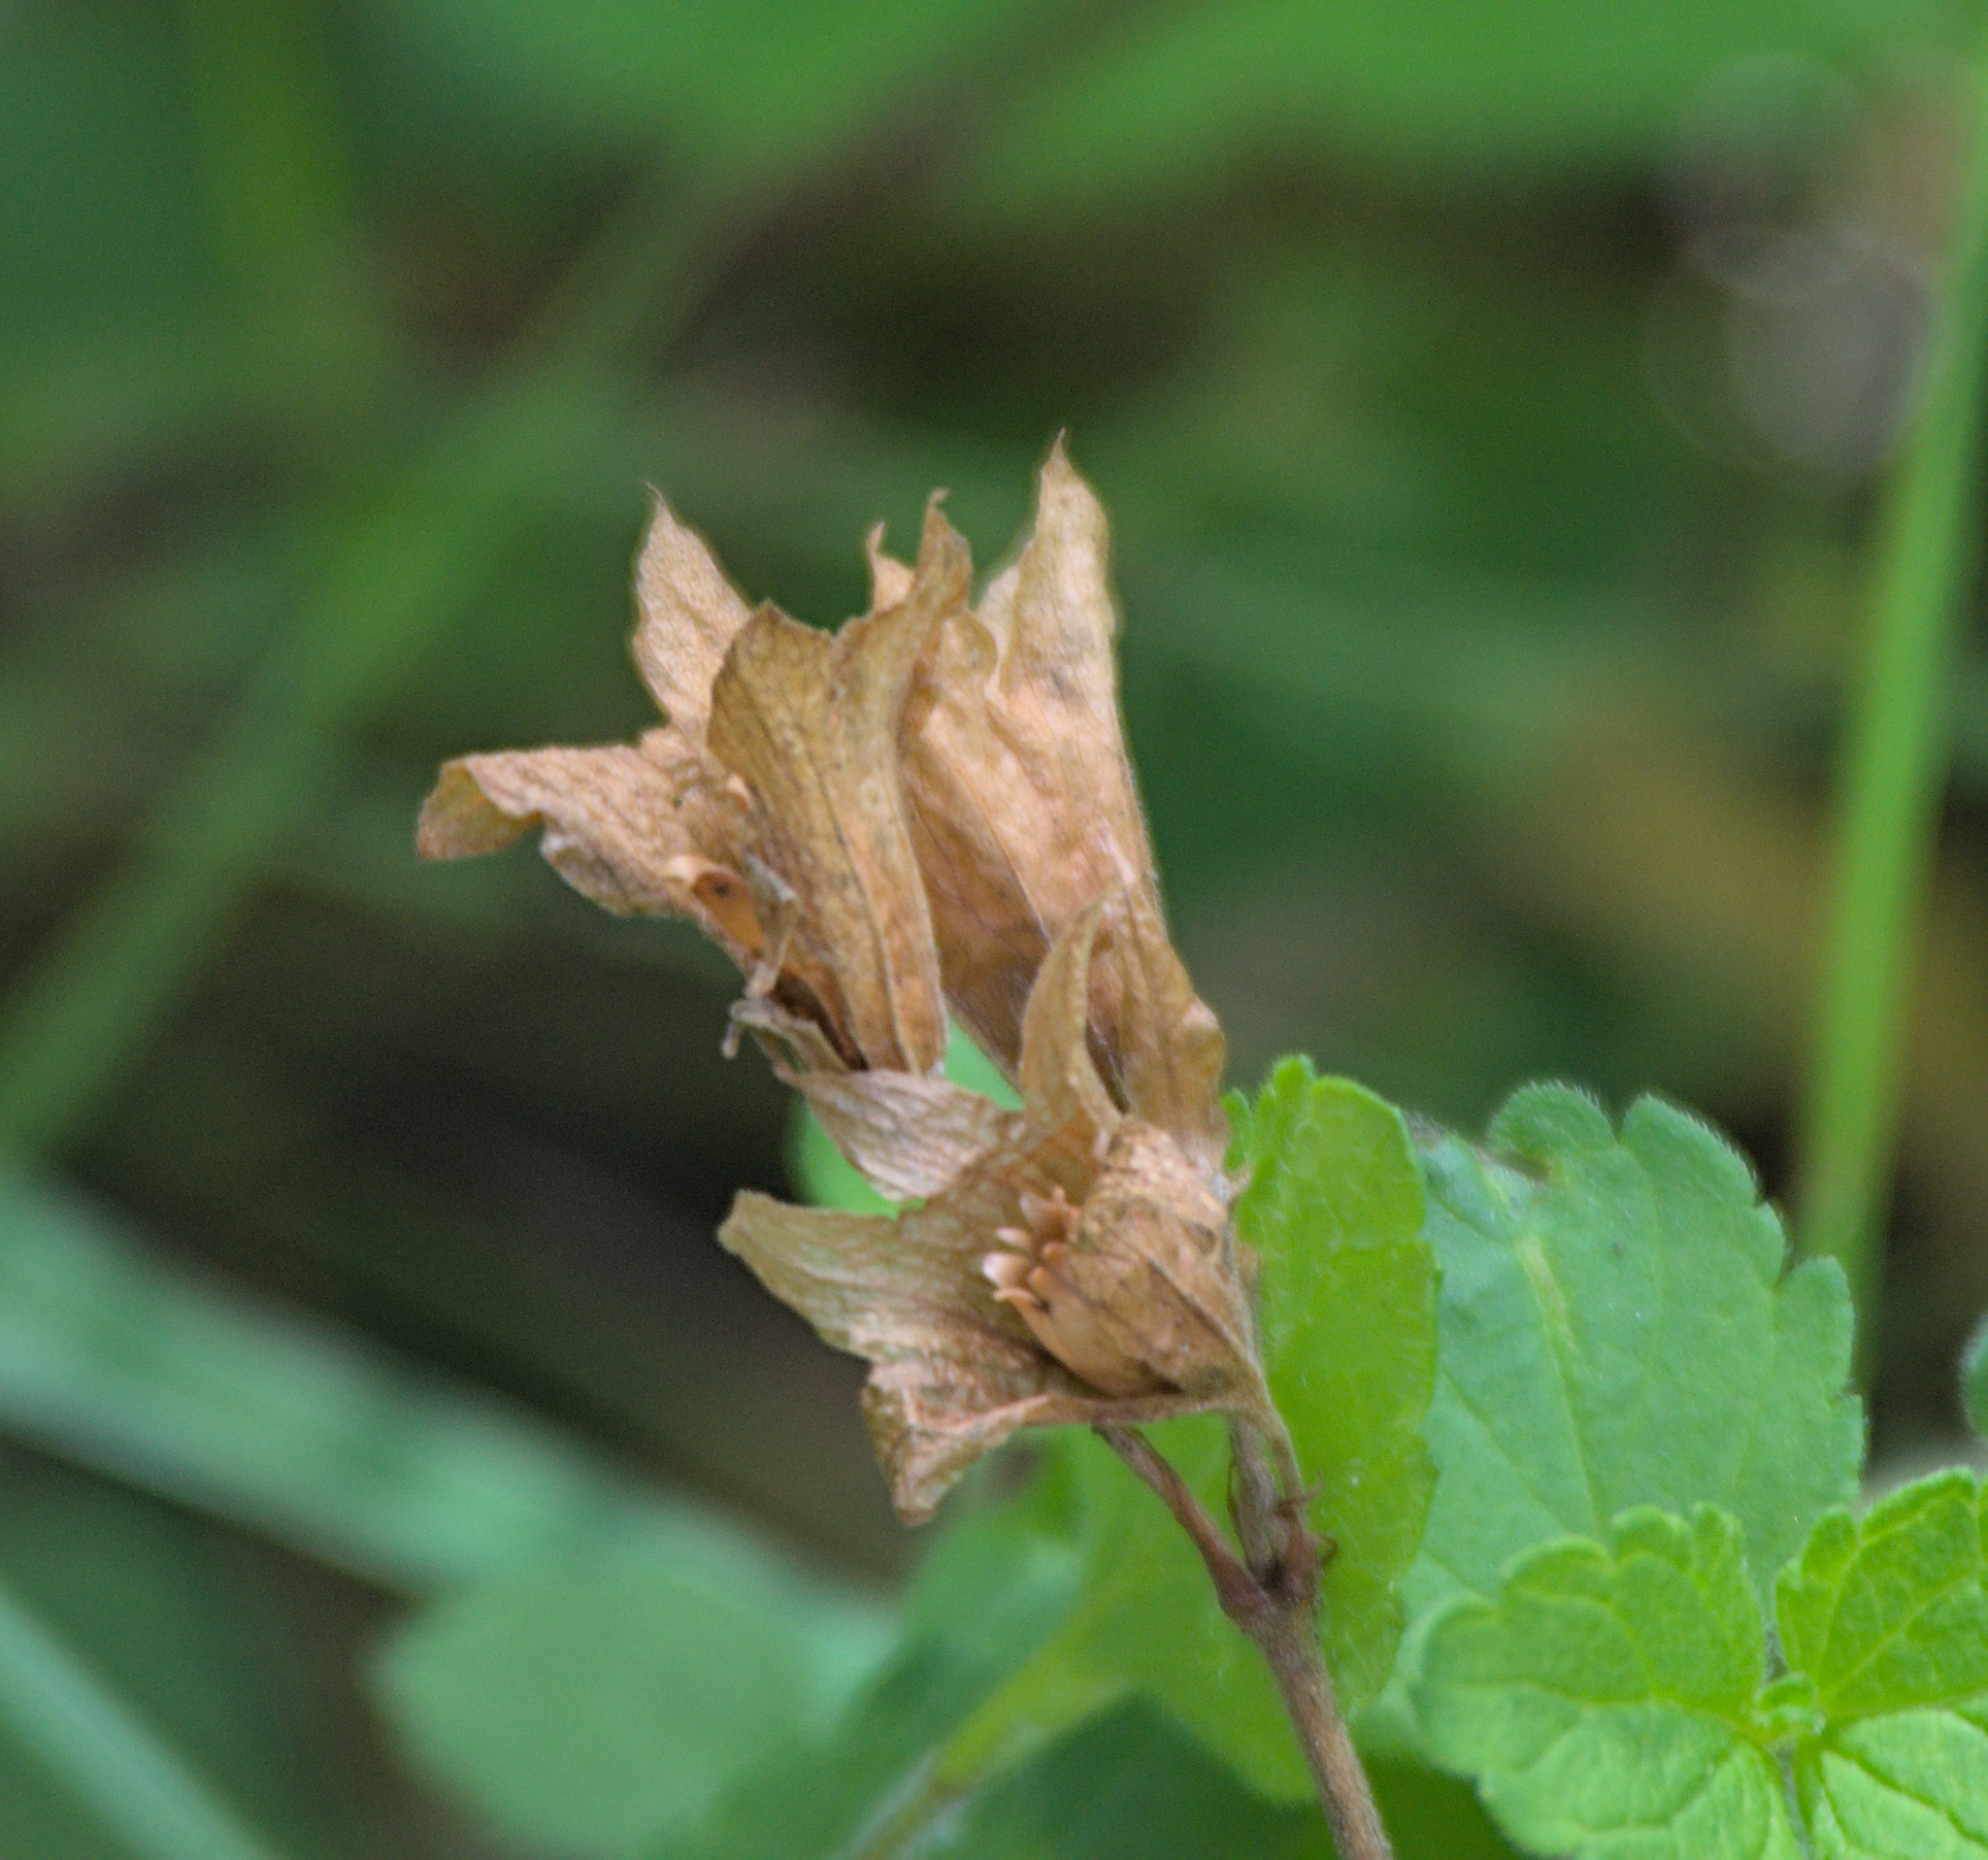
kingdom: Plantae
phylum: Tracheophyta
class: Magnoliopsida
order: Ericales
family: Primulaceae
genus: Primula
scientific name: Primula veris
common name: Cowslip
